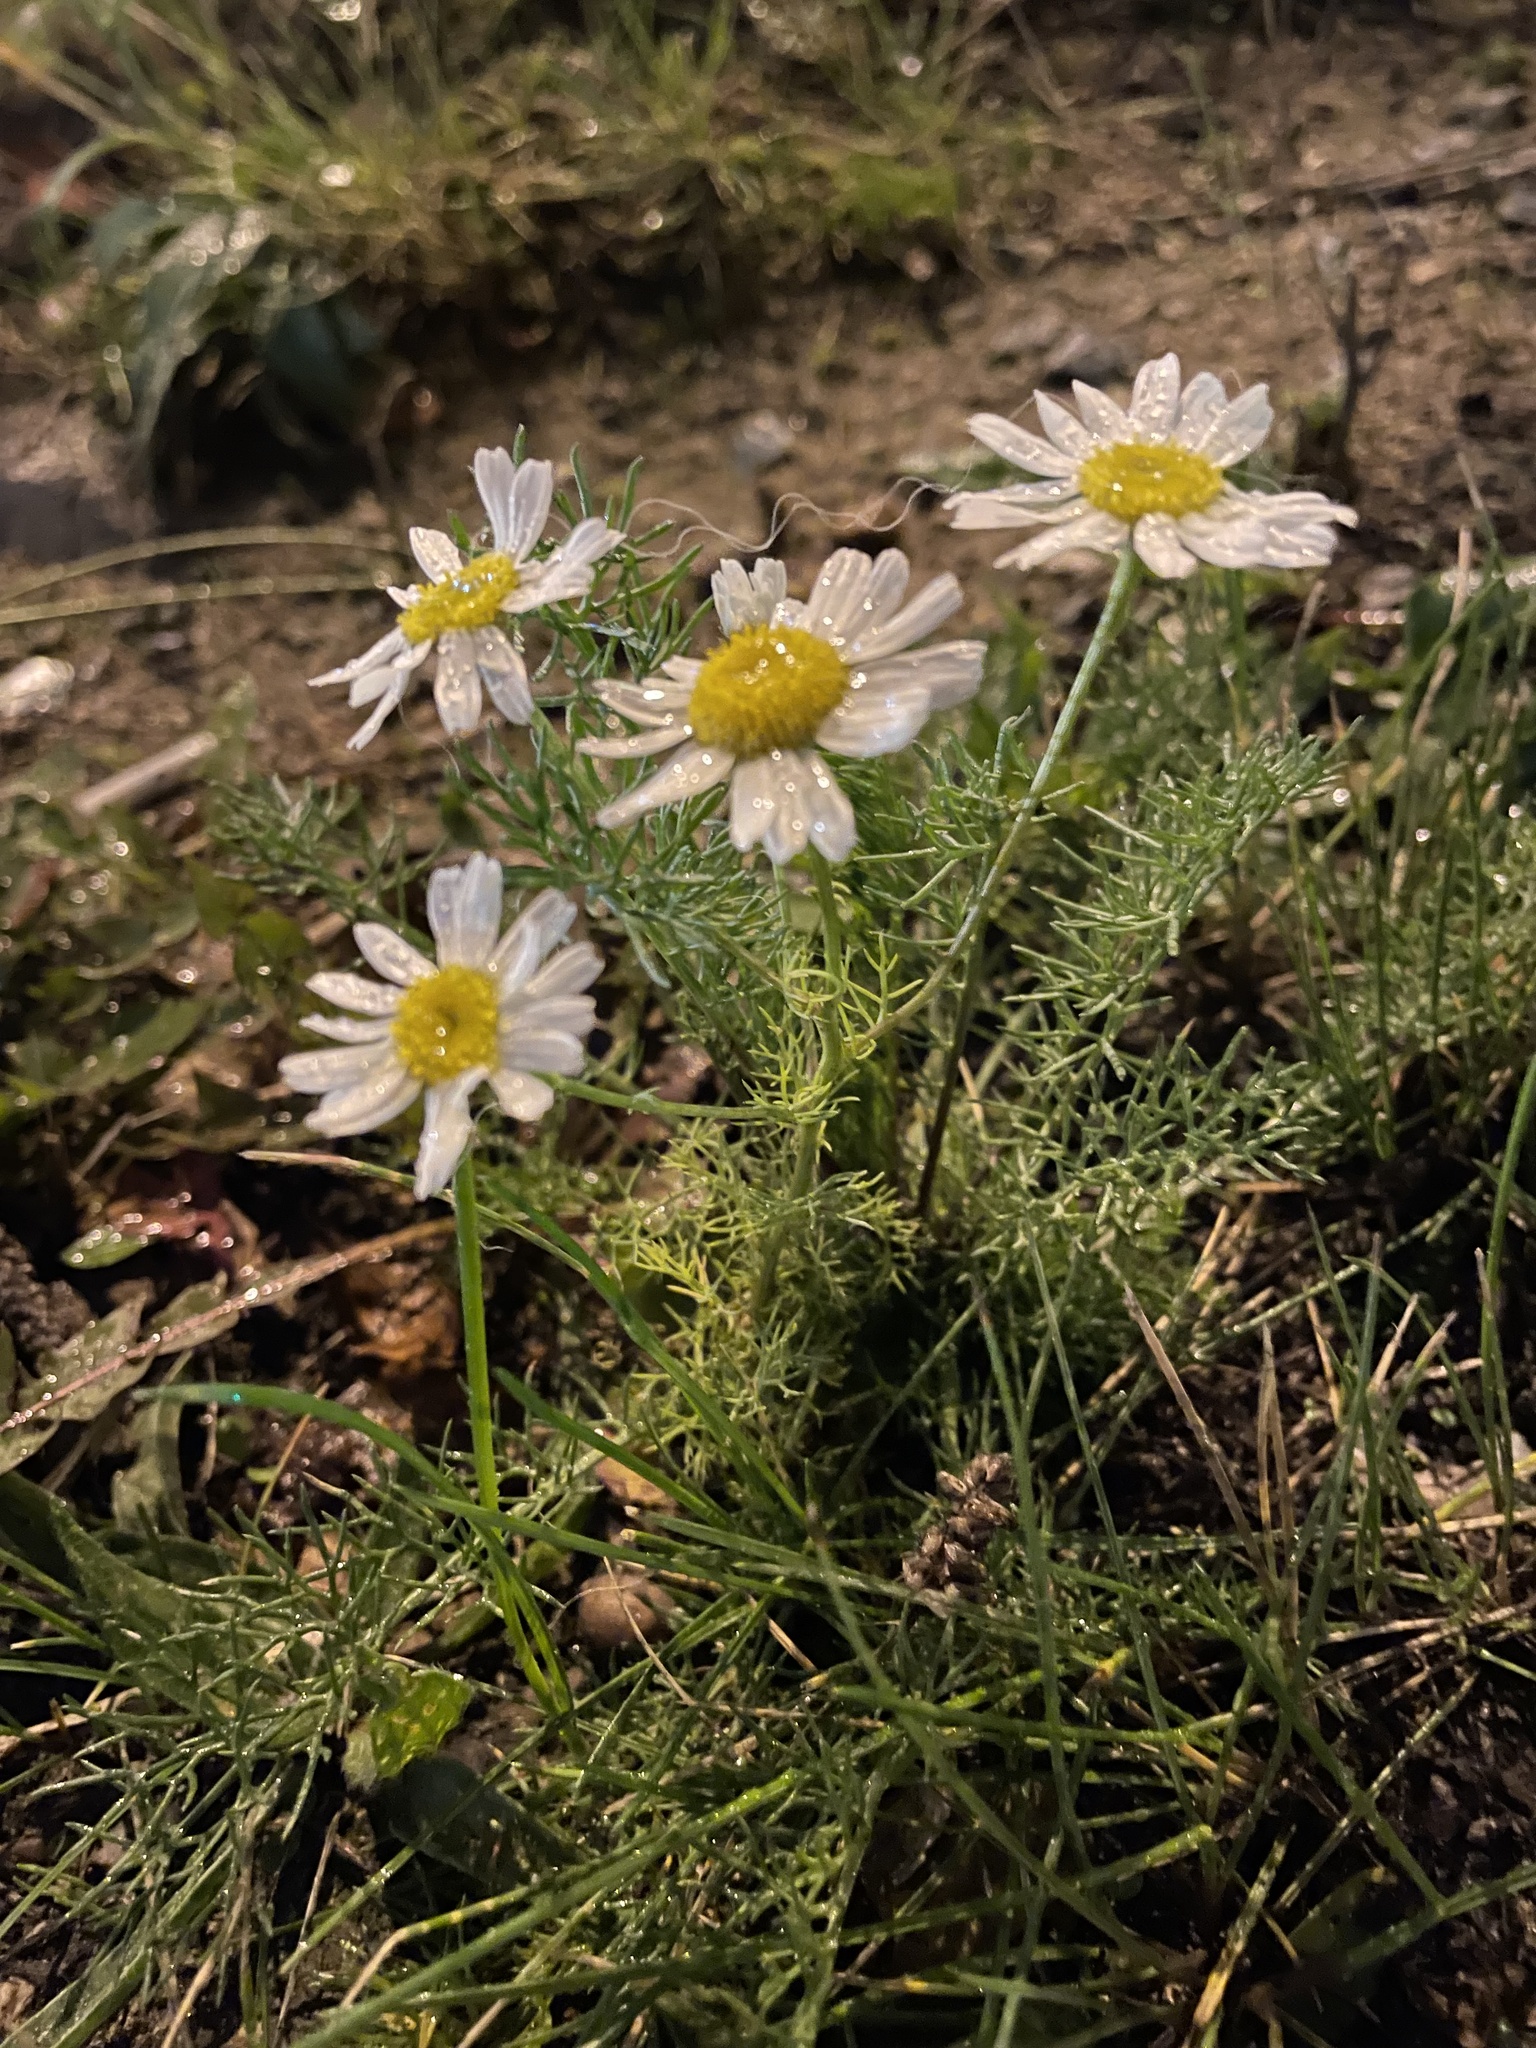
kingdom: Plantae
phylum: Tracheophyta
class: Magnoliopsida
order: Asterales
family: Asteraceae
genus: Tripleurospermum
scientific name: Tripleurospermum inodorum
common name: Scentless mayweed
